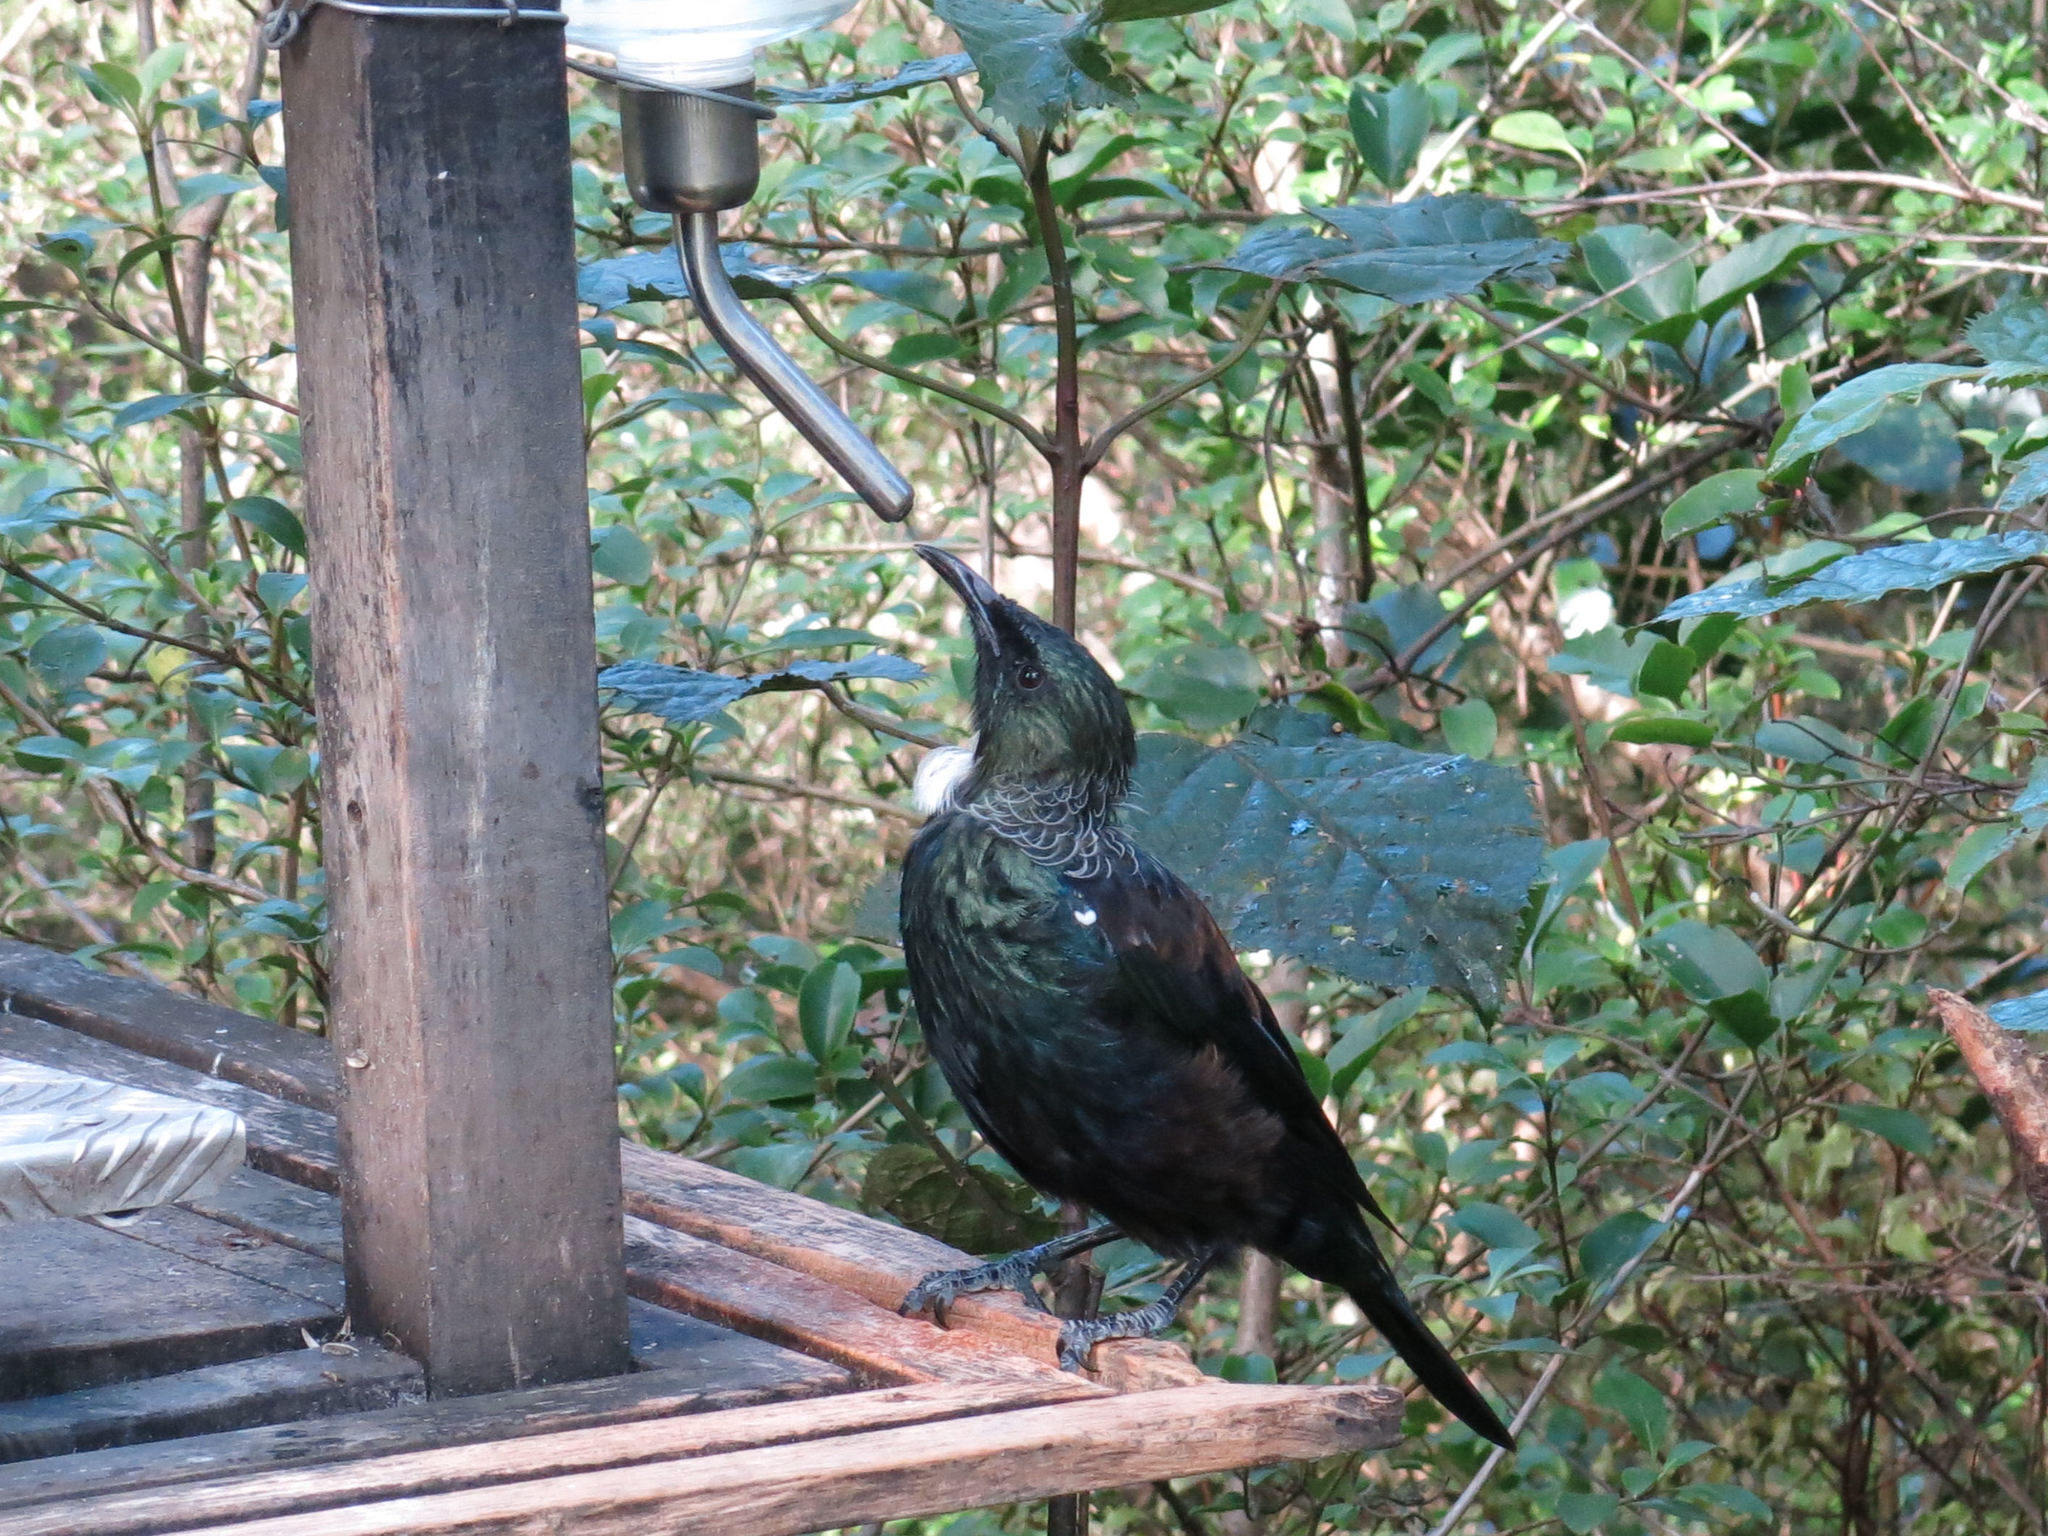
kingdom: Animalia
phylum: Chordata
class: Aves
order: Passeriformes
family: Meliphagidae
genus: Prosthemadera
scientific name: Prosthemadera novaeseelandiae
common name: Tui
